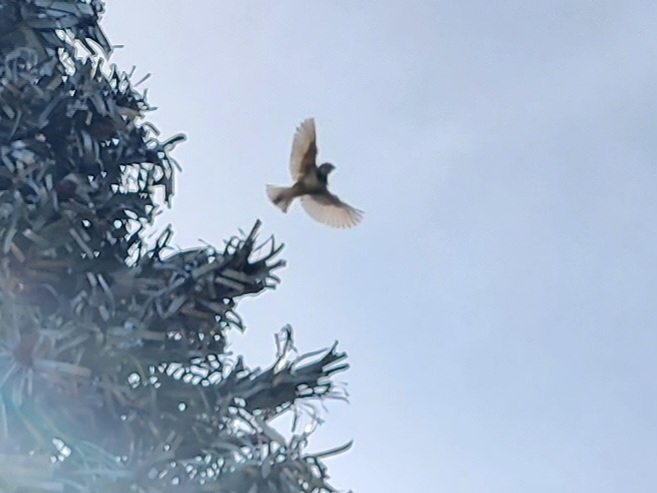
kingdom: Animalia
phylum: Chordata
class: Aves
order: Passeriformes
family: Passeridae
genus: Passer
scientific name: Passer domesticus
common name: House sparrow
